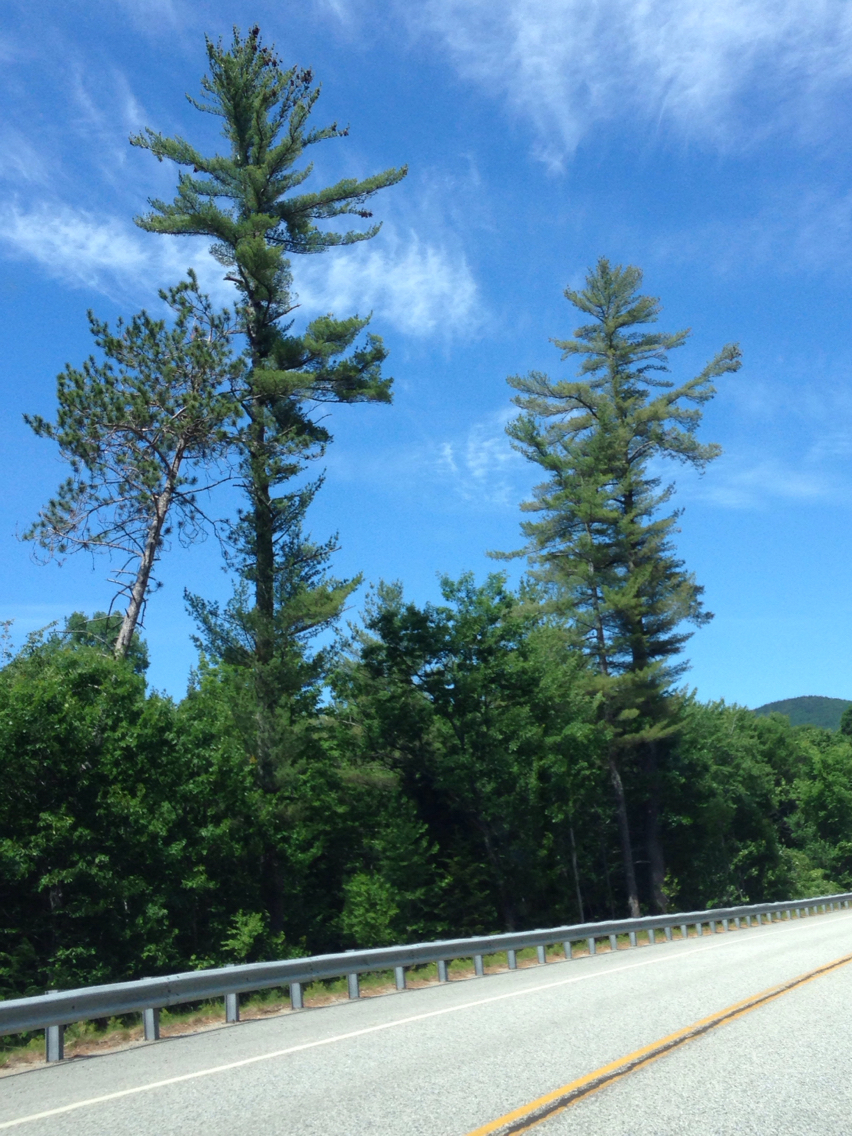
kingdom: Plantae
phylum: Tracheophyta
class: Pinopsida
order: Pinales
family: Pinaceae
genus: Pinus
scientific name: Pinus strobus
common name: Weymouth pine
